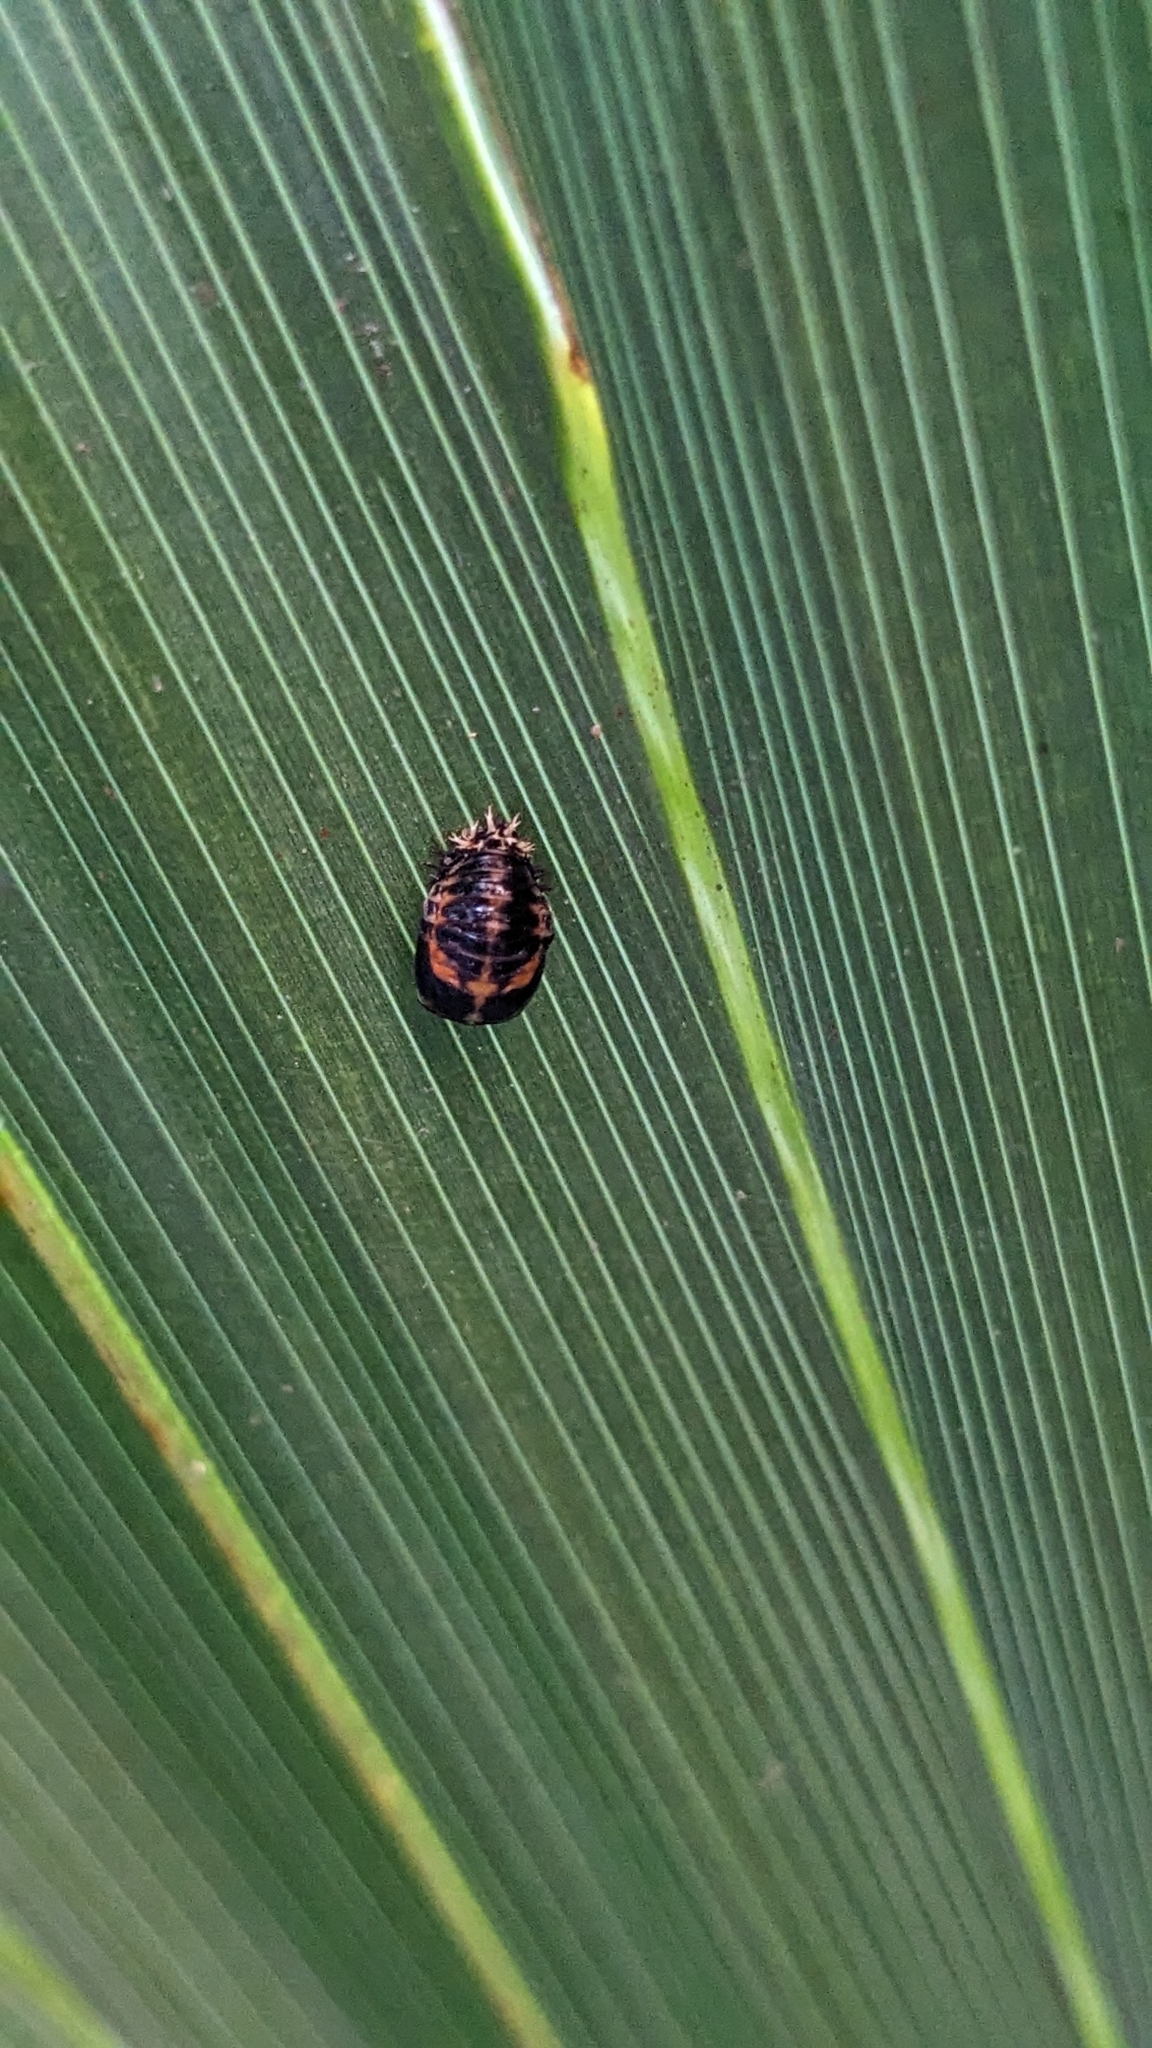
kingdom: Animalia
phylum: Arthropoda
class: Insecta
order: Coleoptera
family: Coccinellidae
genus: Harmonia
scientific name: Harmonia axyridis
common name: Harlequin ladybird
